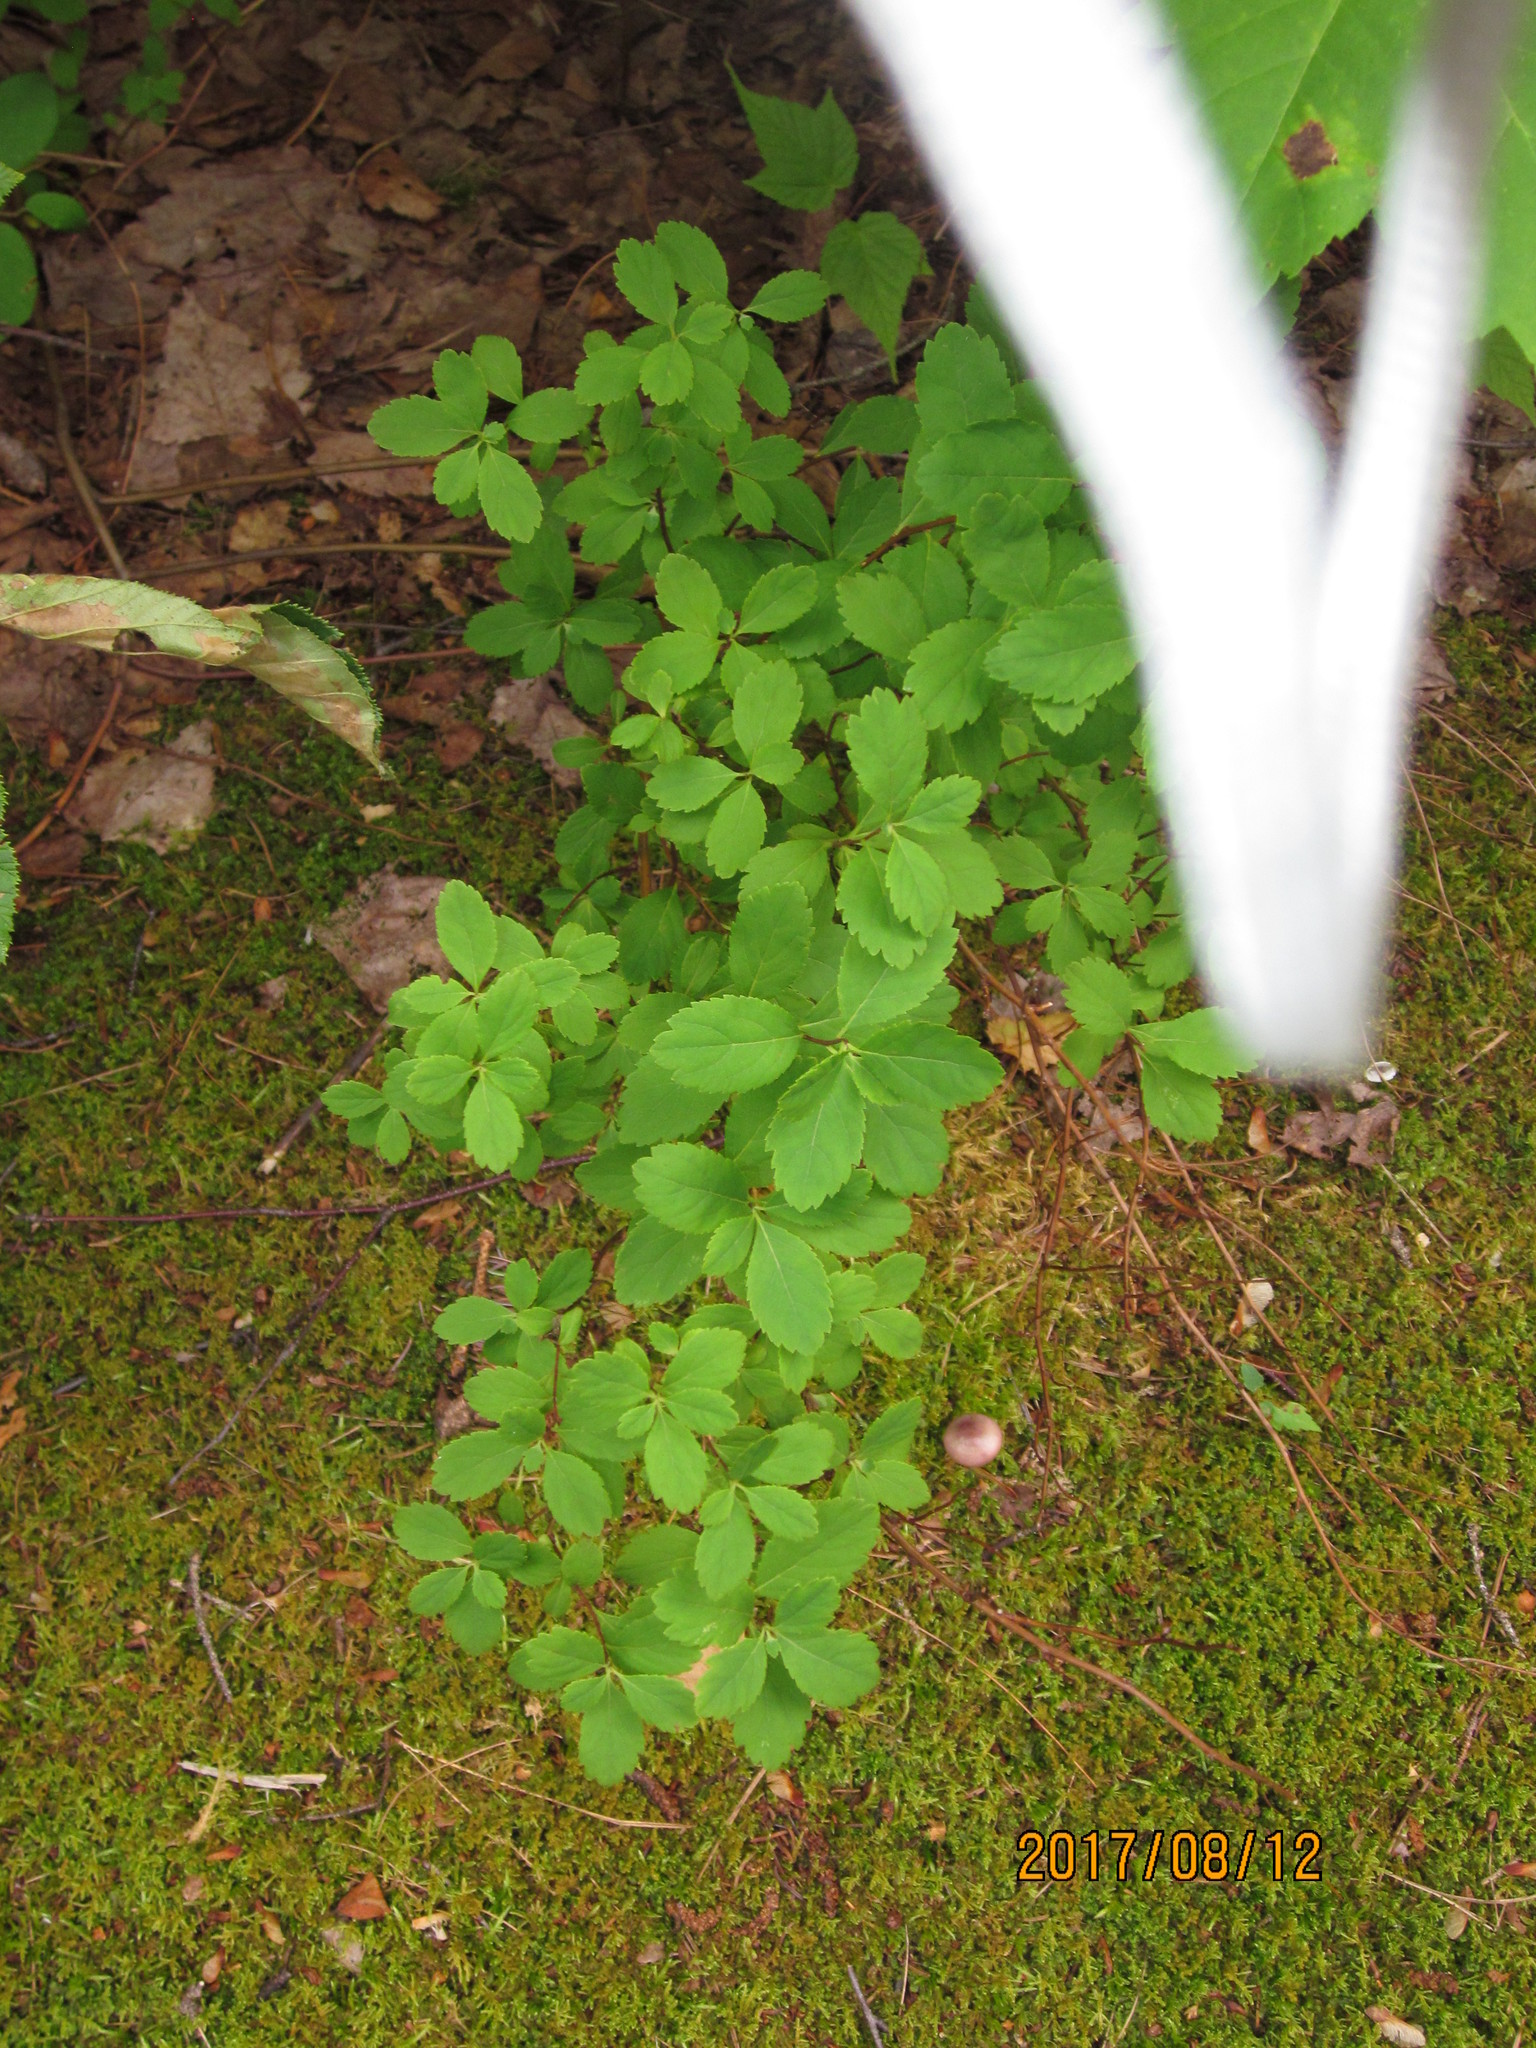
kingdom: Plantae
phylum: Tracheophyta
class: Magnoliopsida
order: Rosales
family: Rosaceae
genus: Spiraea
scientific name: Spiraea alba
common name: Pale bridewort
